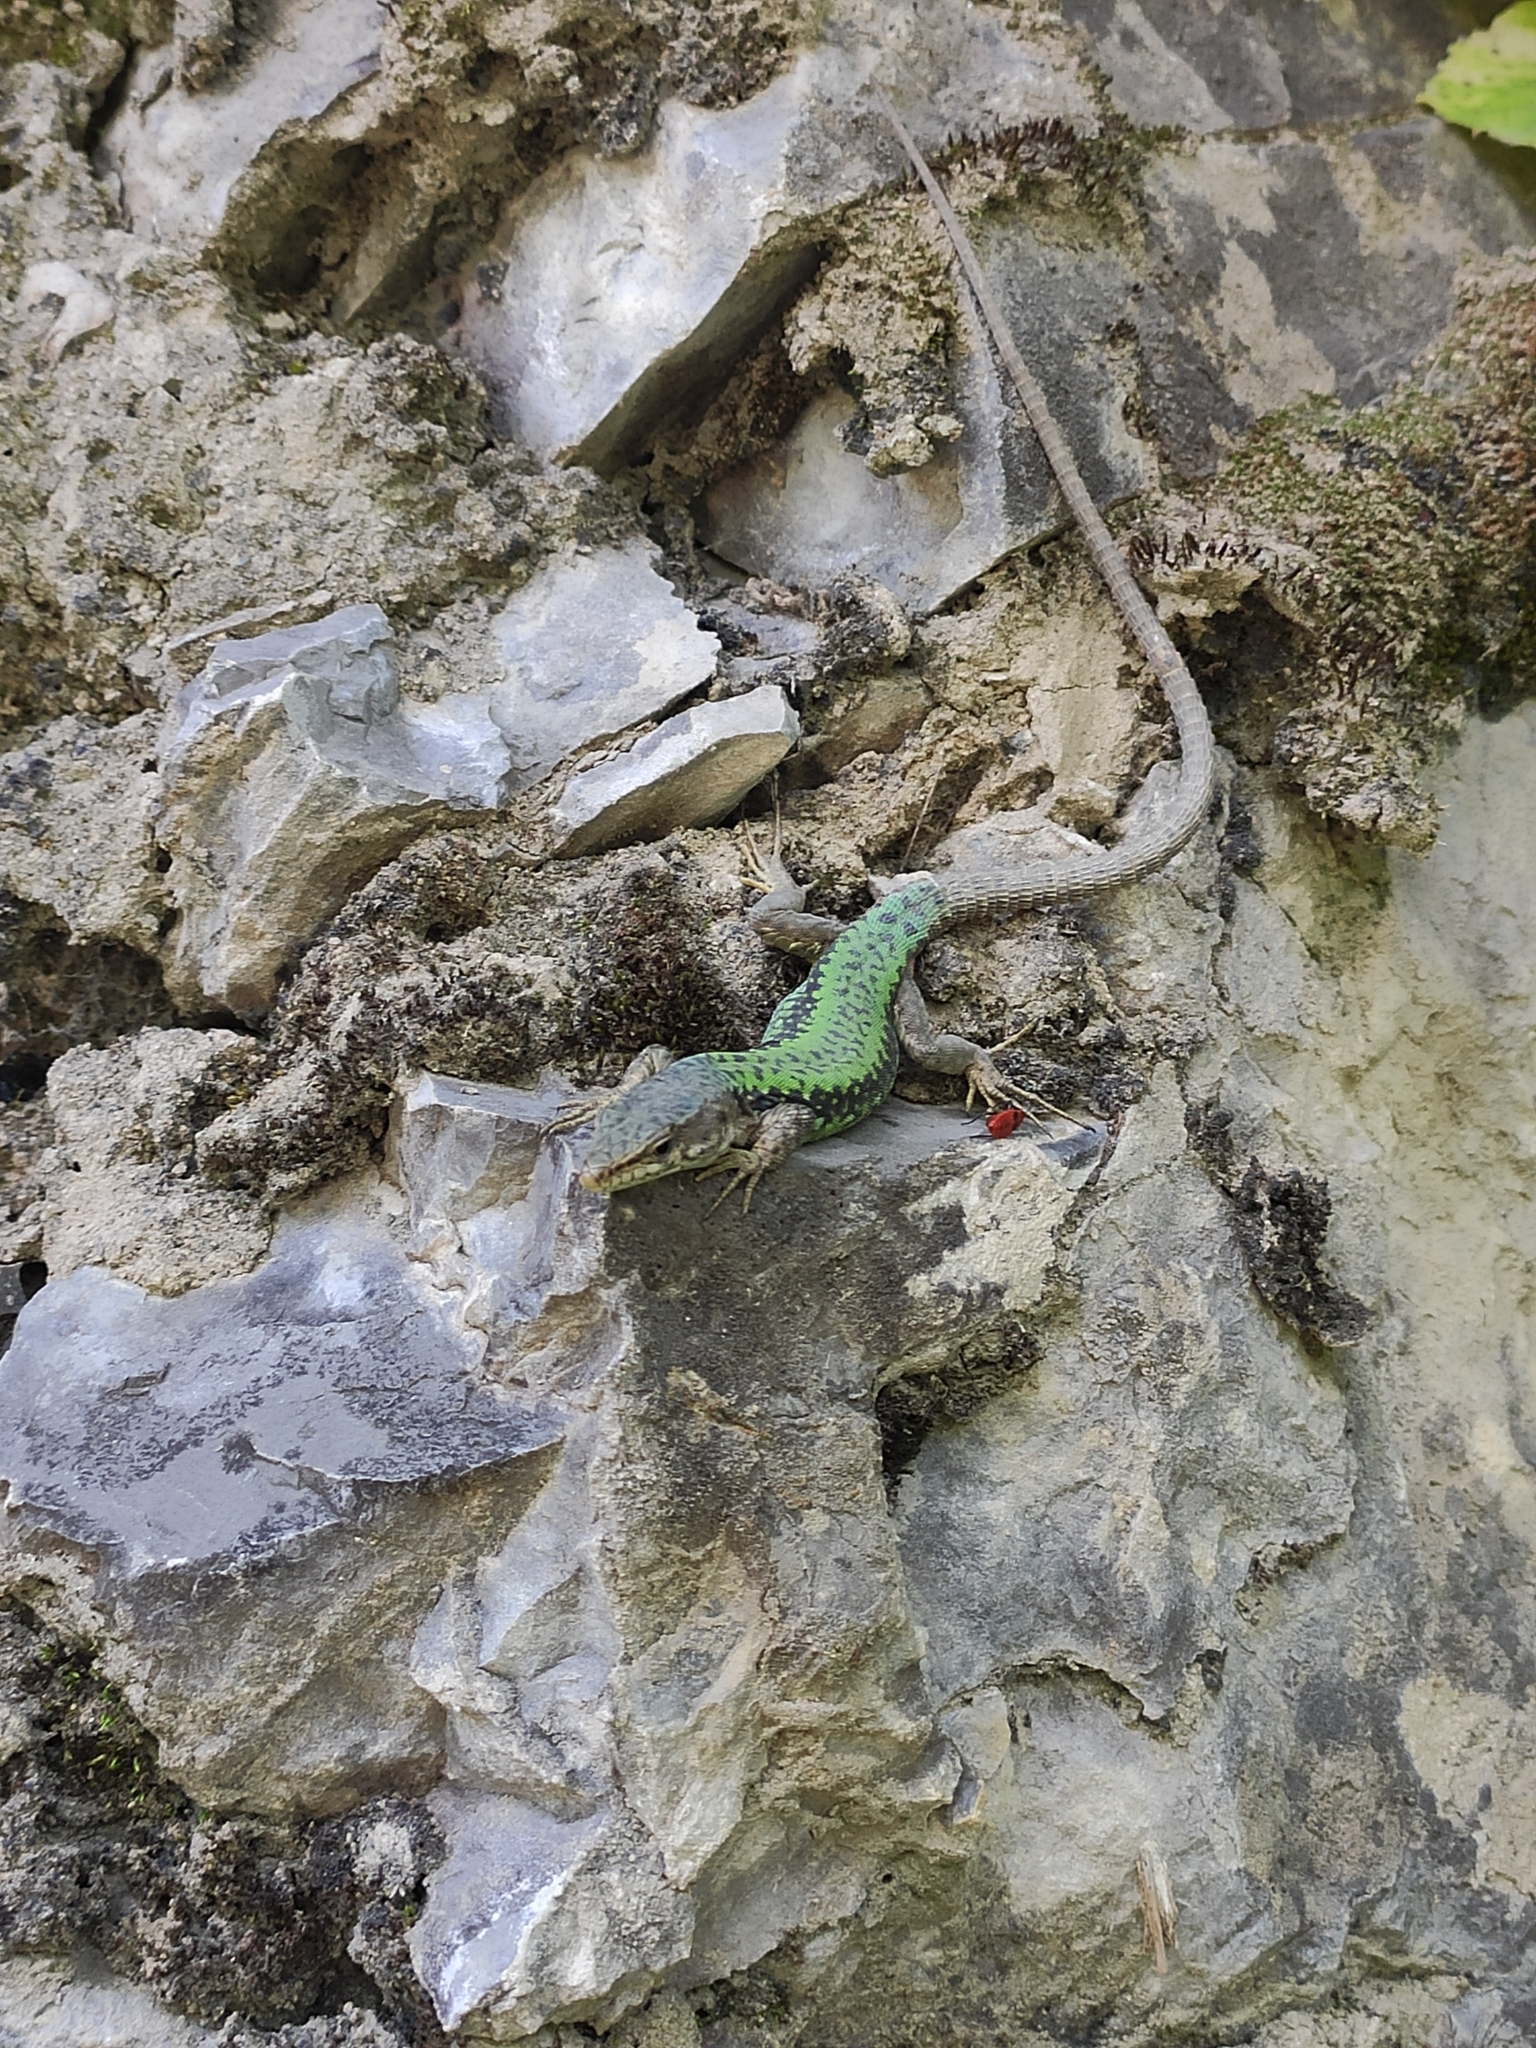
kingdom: Animalia
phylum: Chordata
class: Squamata
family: Lacertidae
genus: Darevskia
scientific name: Darevskia brauneri
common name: Brauner's rock lizard
